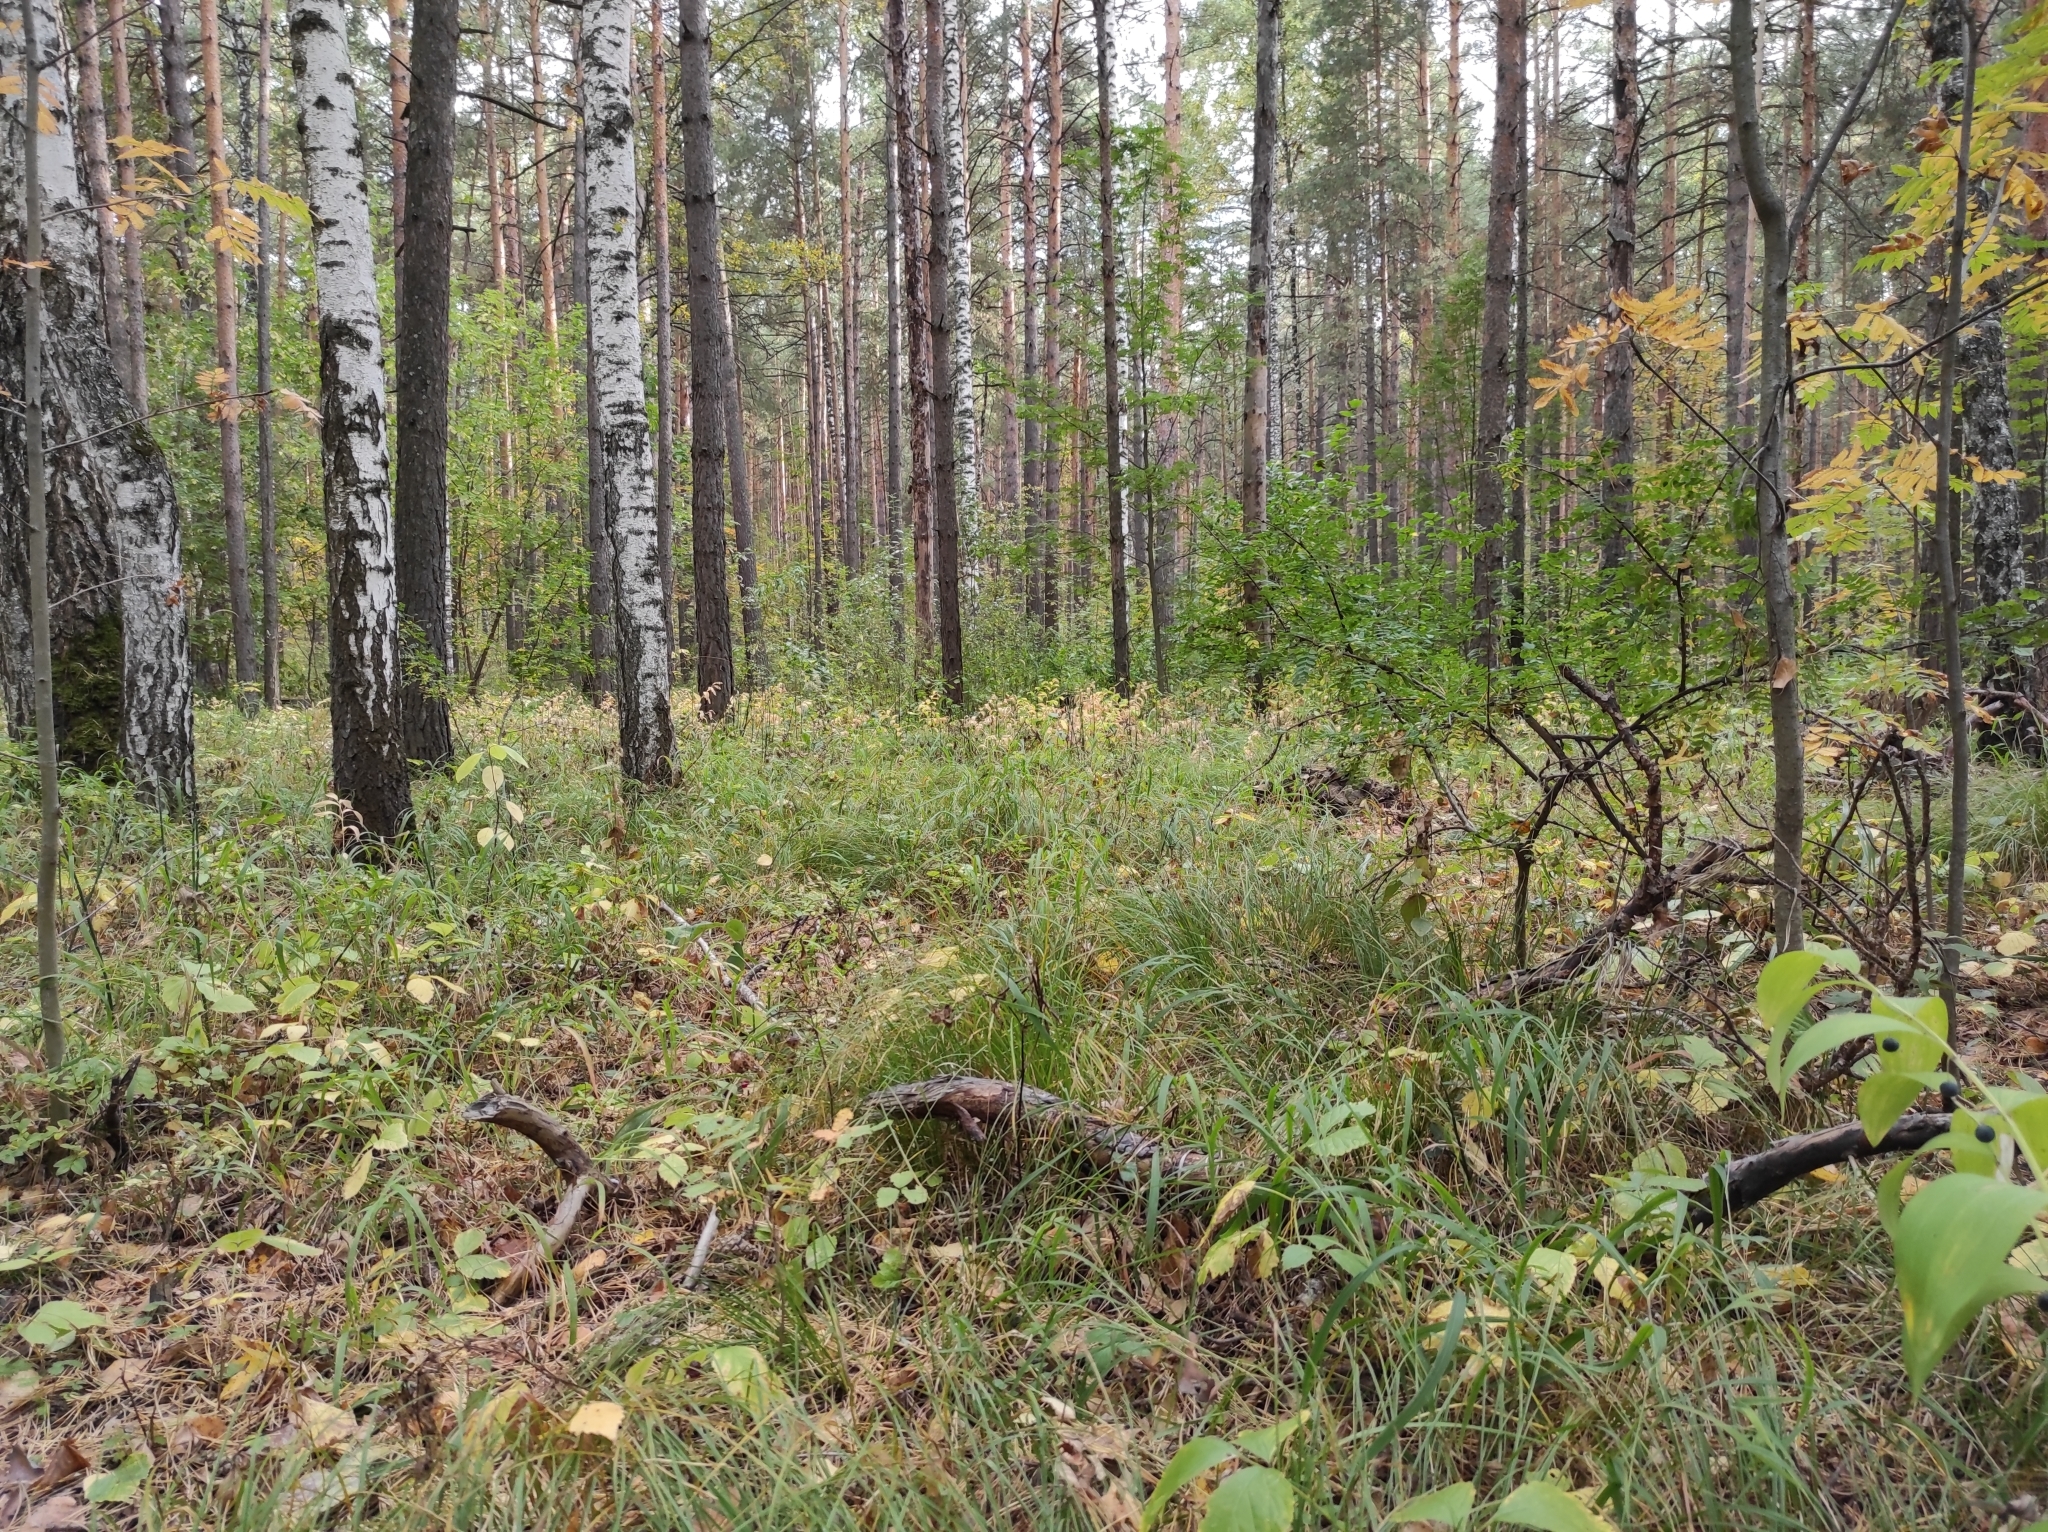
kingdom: Fungi
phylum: Basidiomycota
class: Agaricomycetes
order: Russulales
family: Russulaceae
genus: Russula
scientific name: Russula delica
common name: Milk white brittlegill
